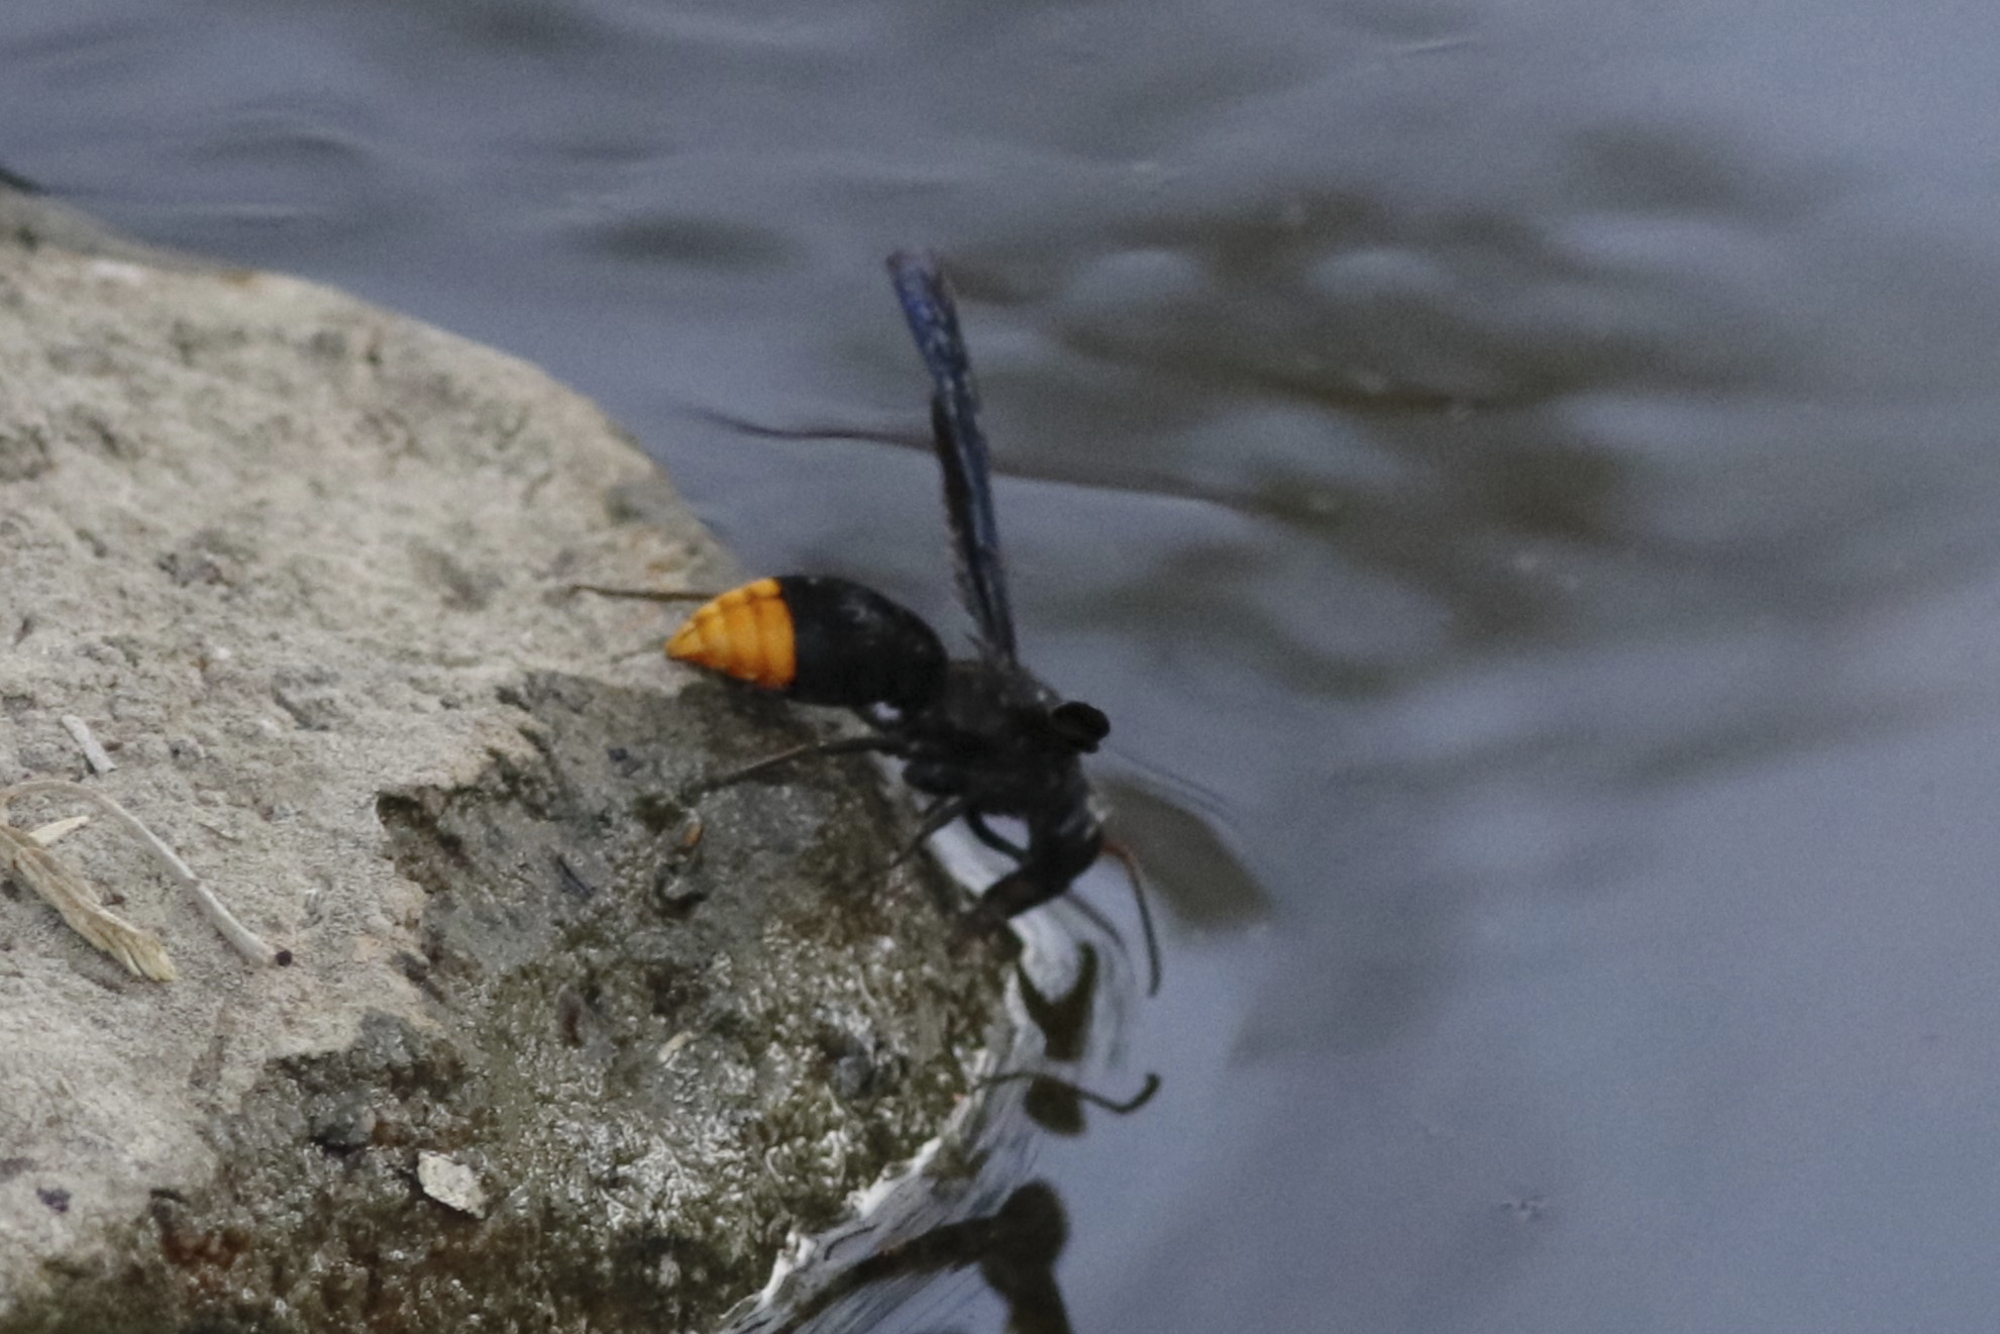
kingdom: Animalia
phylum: Arthropoda
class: Insecta
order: Hymenoptera
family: Vespidae
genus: Synagris
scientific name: Synagris
